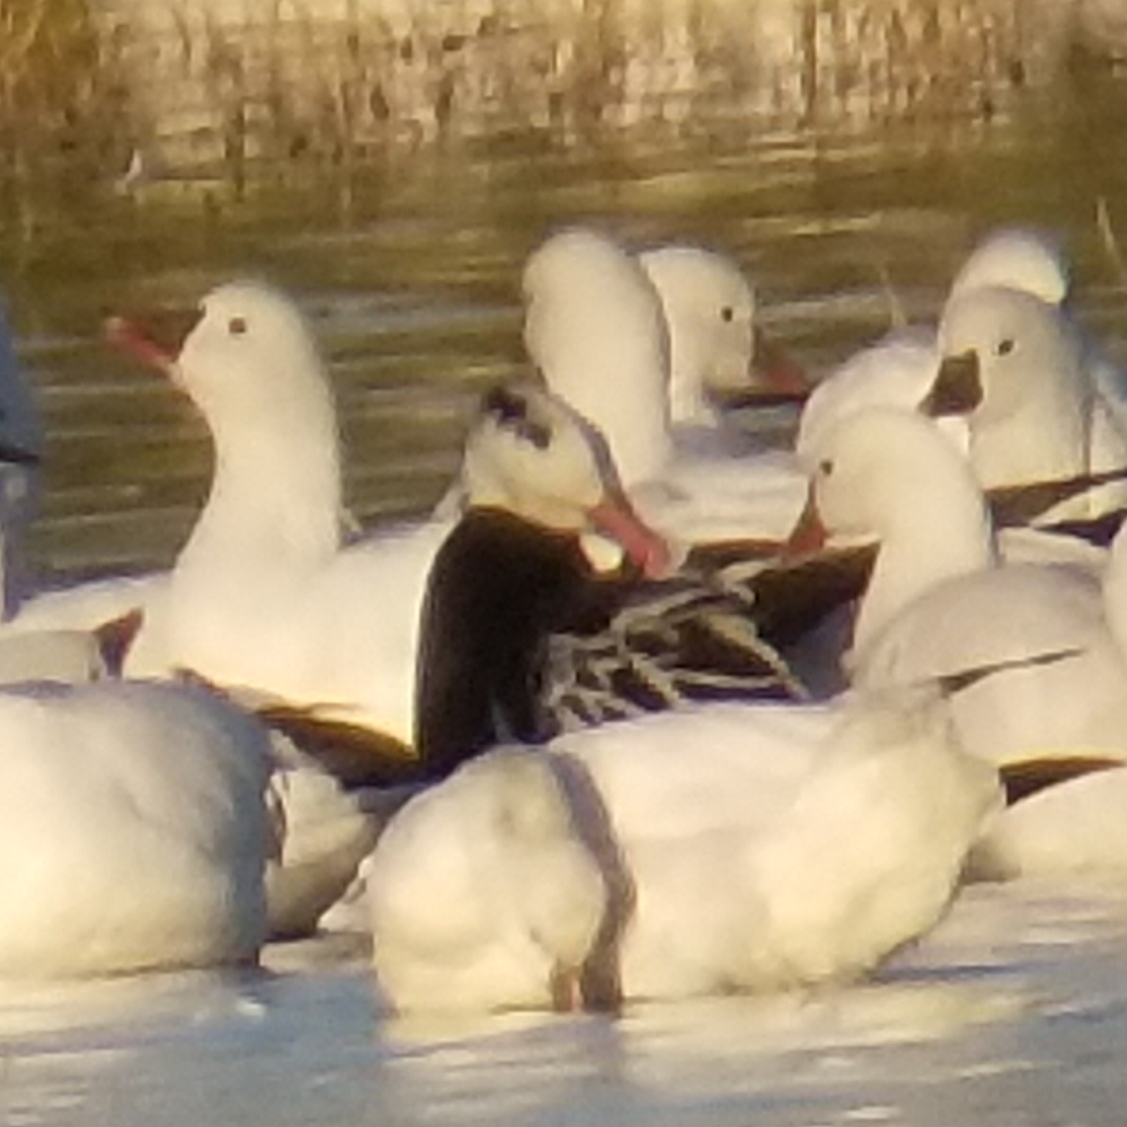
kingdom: Animalia
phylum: Chordata
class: Aves
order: Anseriformes
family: Anatidae
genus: Anser
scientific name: Anser rossii
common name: Ross's goose
